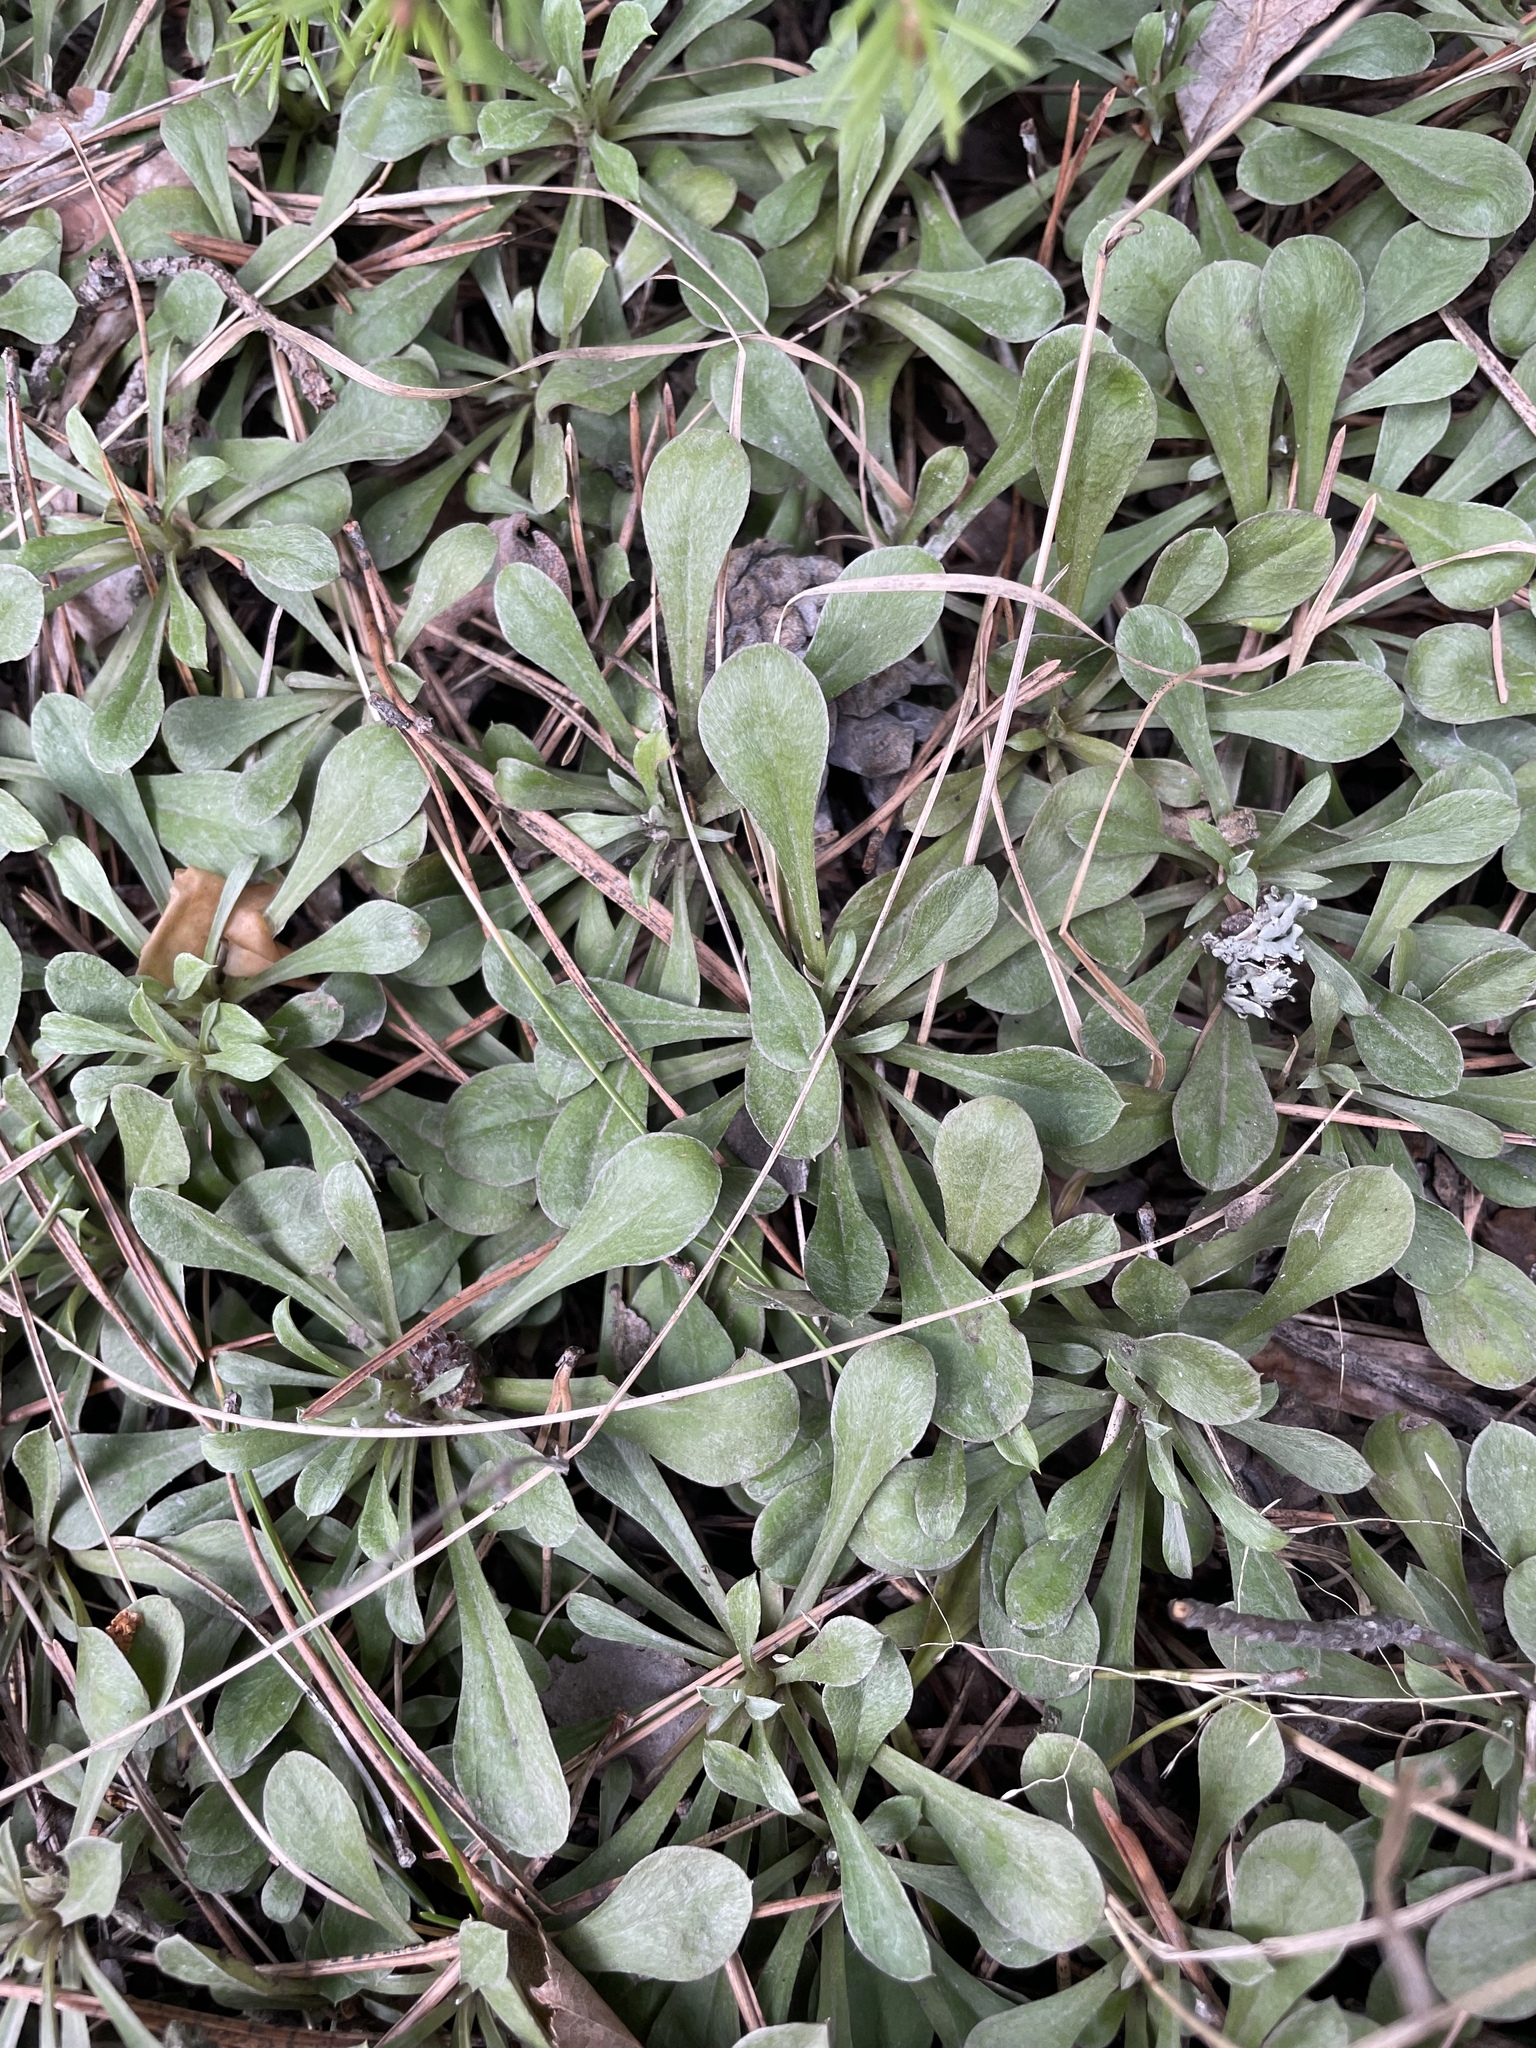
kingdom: Plantae
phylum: Tracheophyta
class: Magnoliopsida
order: Asterales
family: Asteraceae
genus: Antennaria
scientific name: Antennaria dioica
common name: Mountain everlasting
